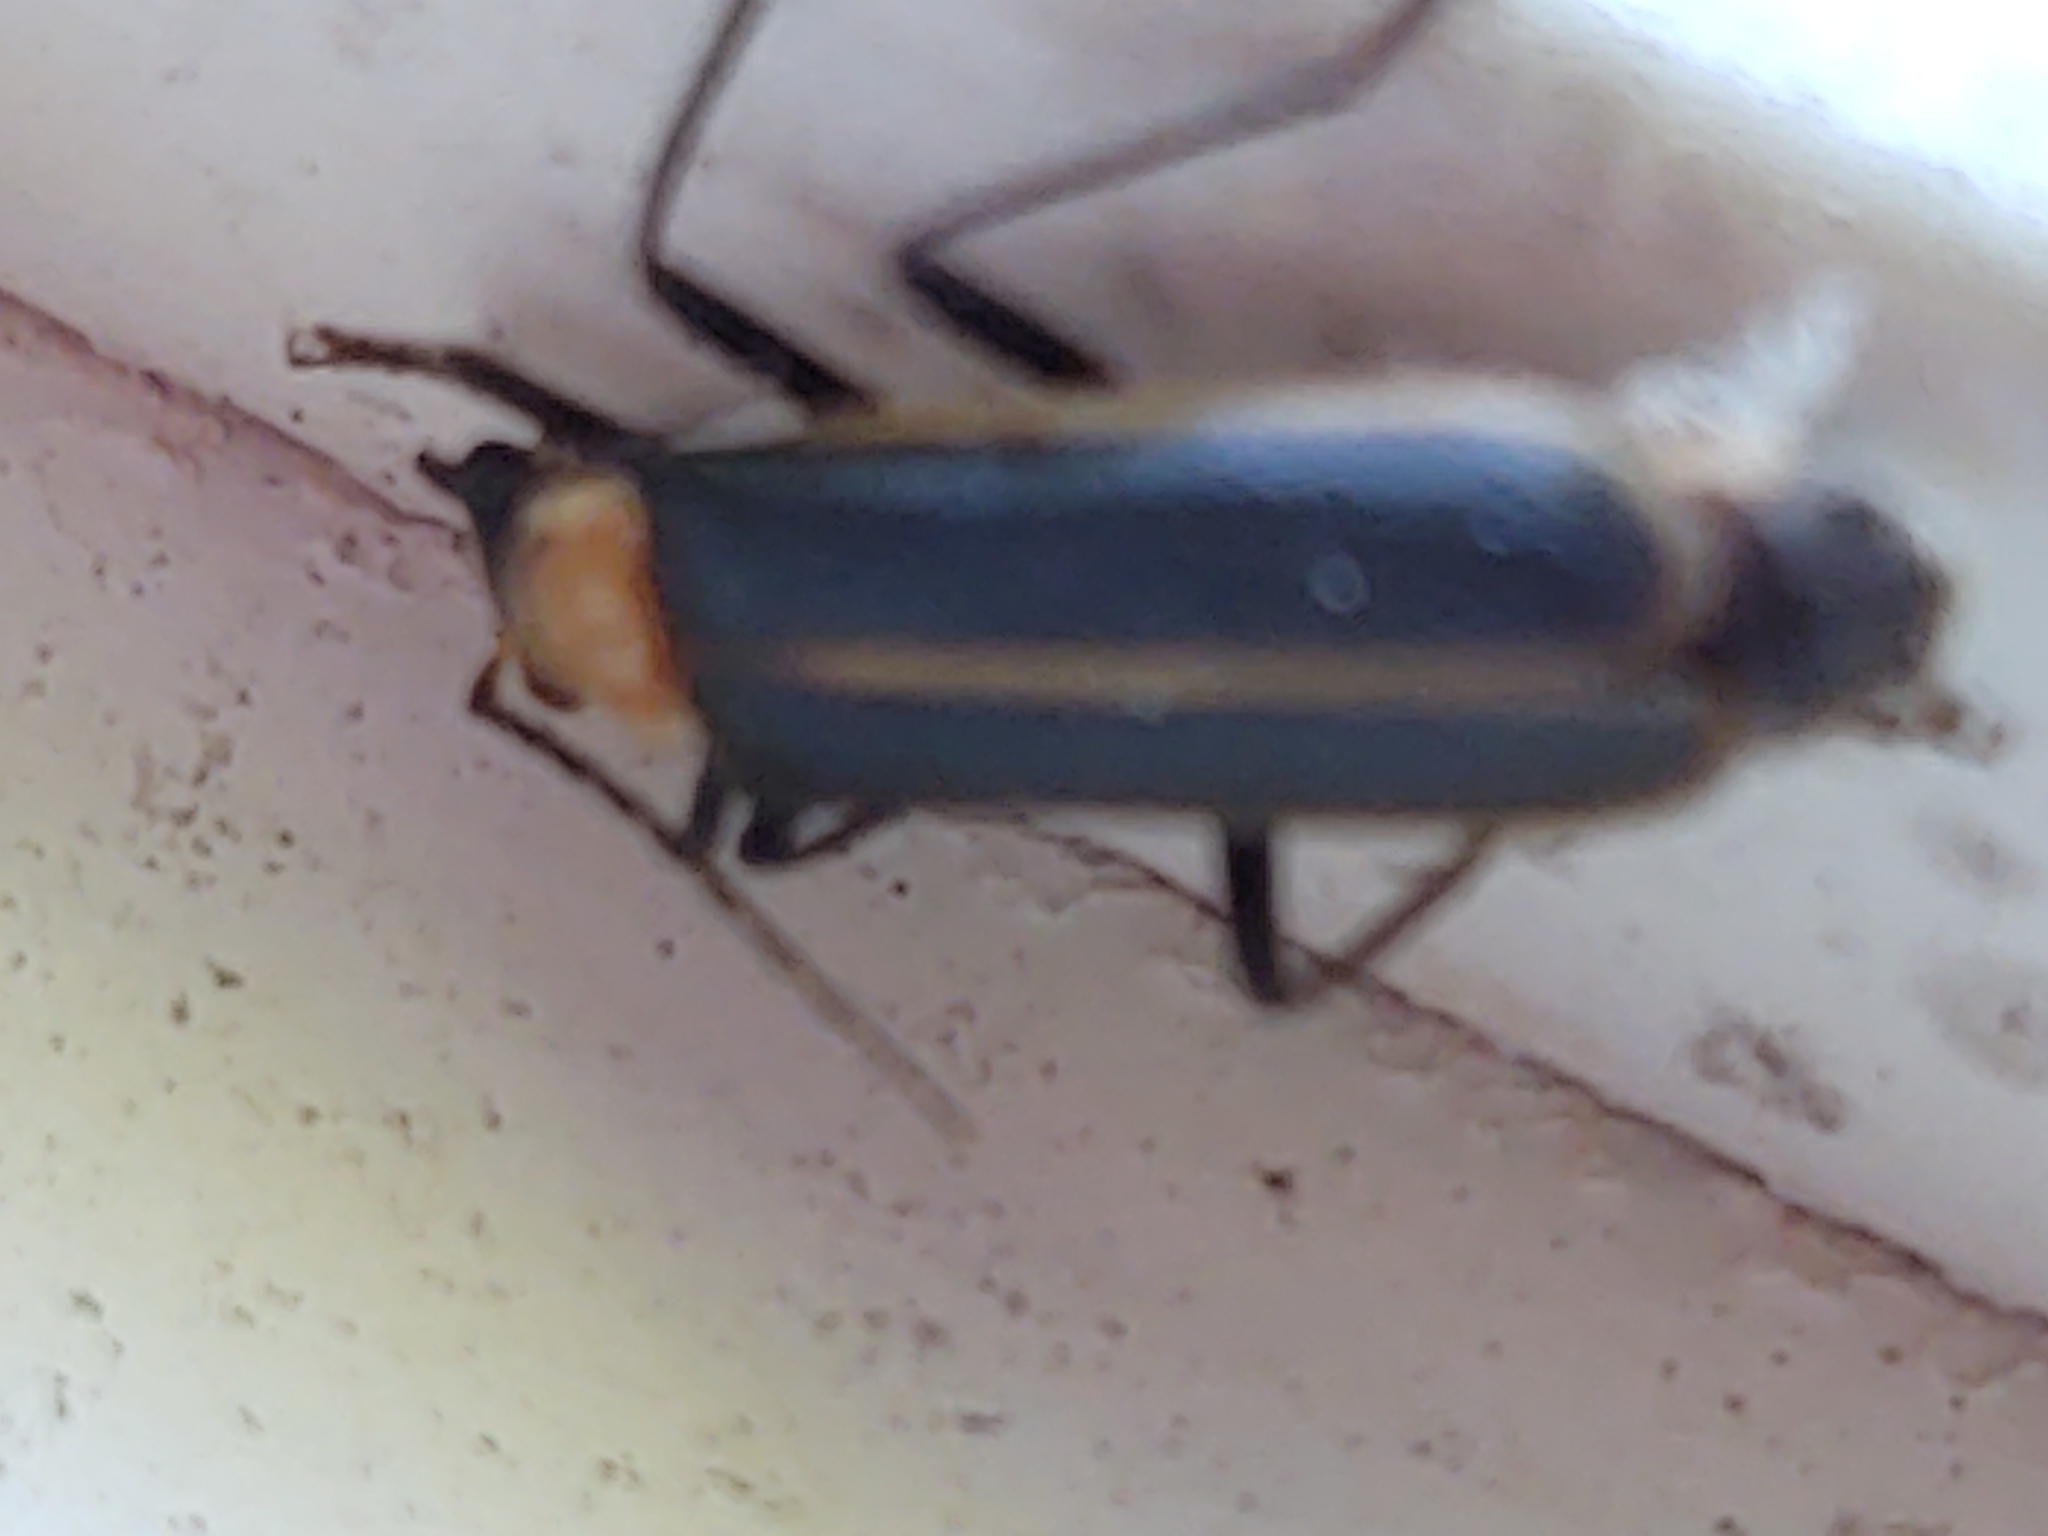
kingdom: Animalia
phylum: Arthropoda
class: Insecta
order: Coleoptera
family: Cantharidae
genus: Podabrus
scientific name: Podabrus flavicollis
